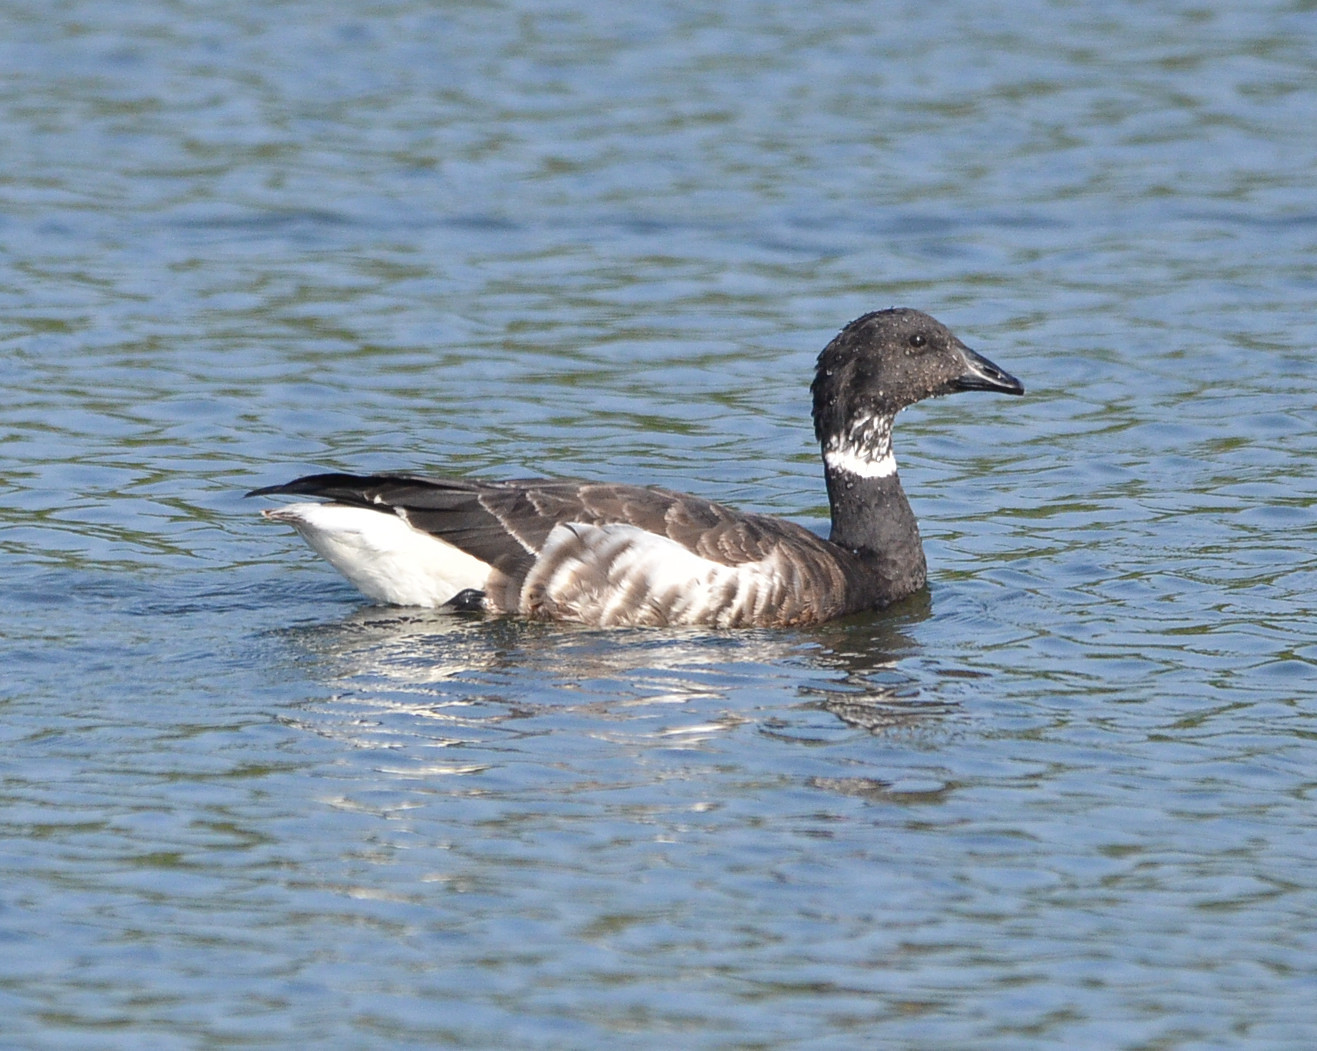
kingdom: Animalia
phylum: Chordata
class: Aves
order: Anseriformes
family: Anatidae
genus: Branta
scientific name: Branta bernicla
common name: Brant goose
